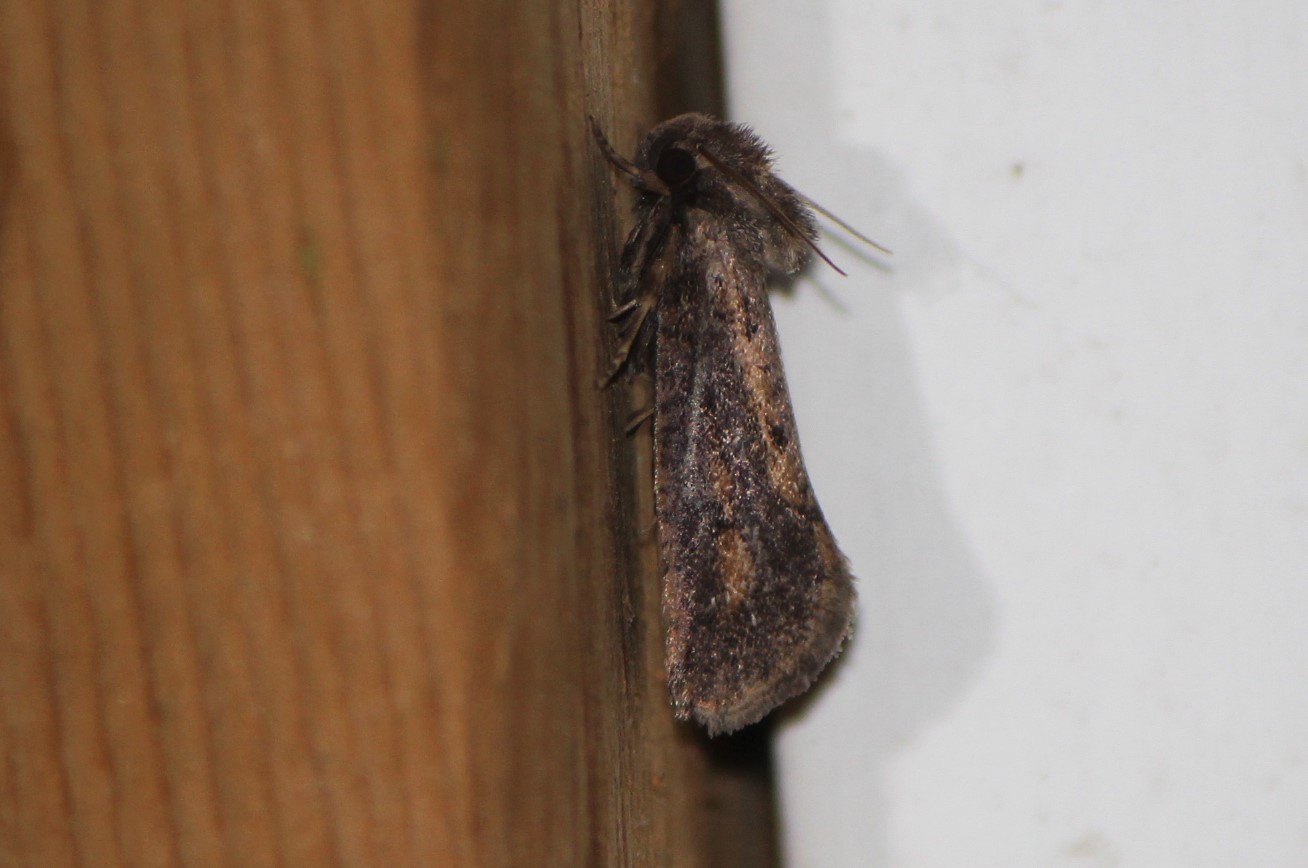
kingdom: Animalia
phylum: Arthropoda
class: Insecta
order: Lepidoptera
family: Tineidae
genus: Acrolophus
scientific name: Acrolophus popeanella
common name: Clemens' grass tubeworm moth
